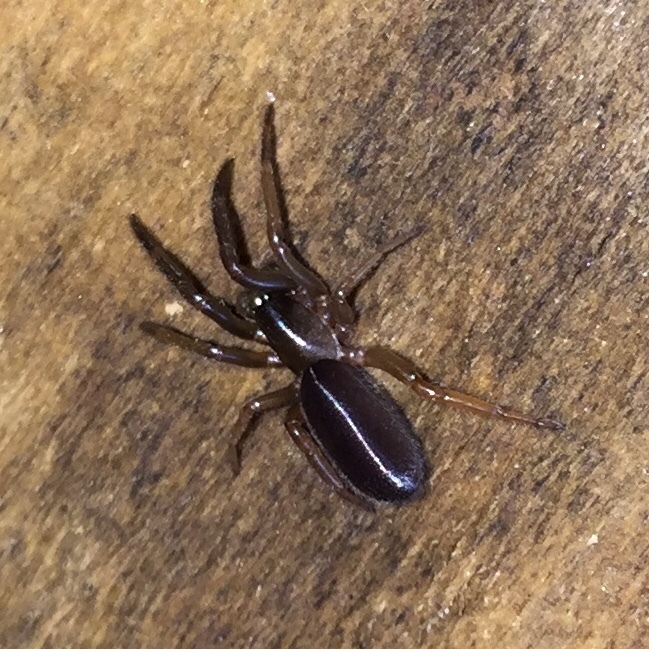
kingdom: Animalia
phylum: Arthropoda
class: Arachnida
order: Araneae
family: Segestriidae
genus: Ariadna
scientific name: Ariadna bicolor
